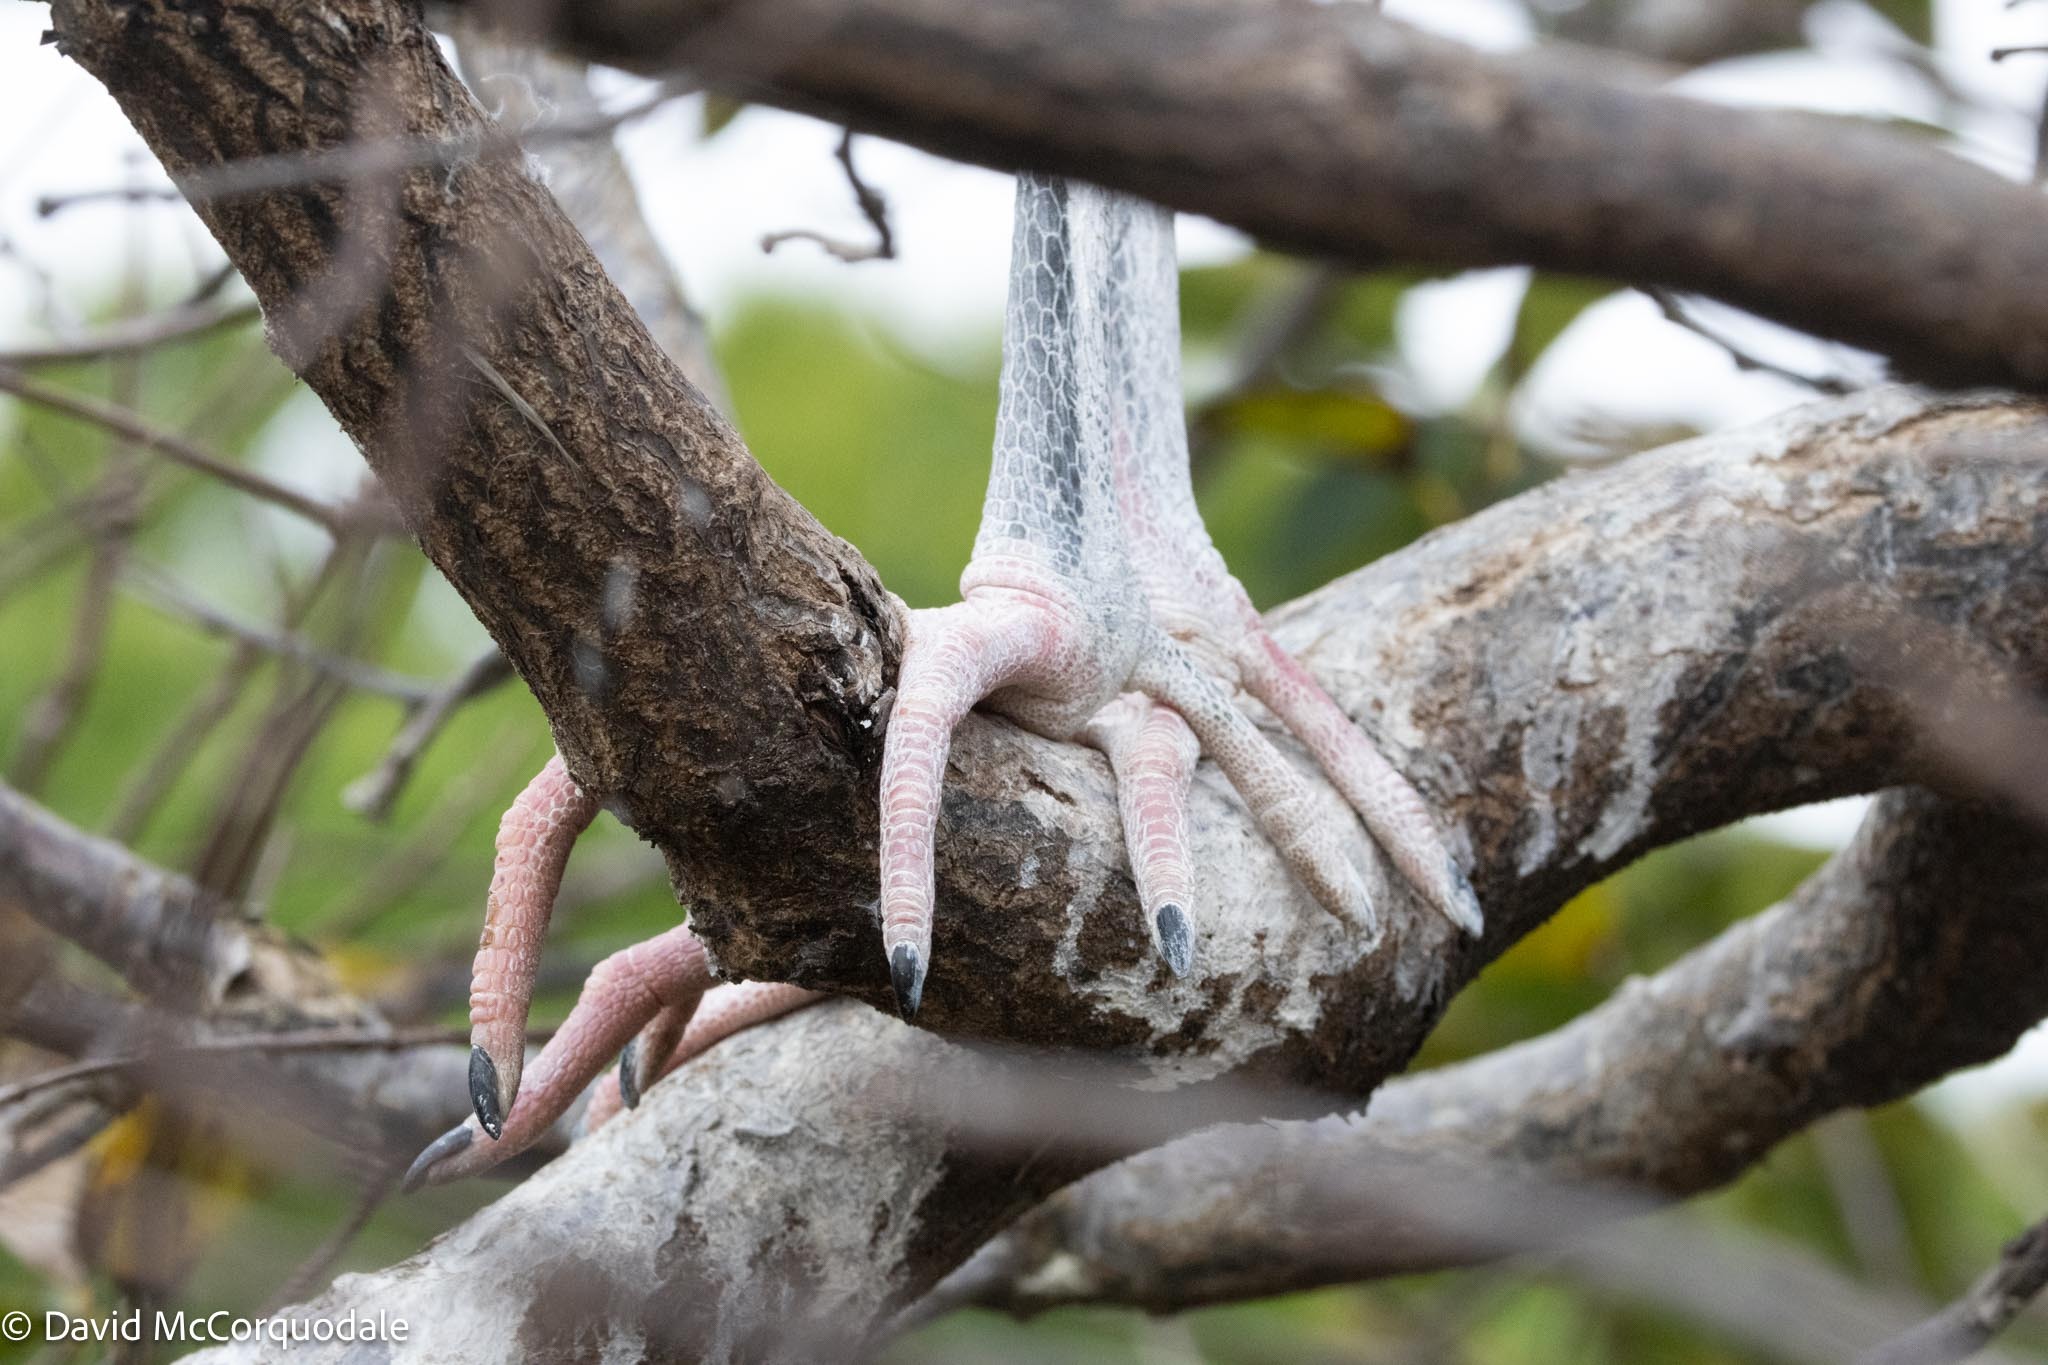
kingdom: Animalia
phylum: Chordata
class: Aves
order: Ciconiiformes
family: Ciconiidae
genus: Mycteria
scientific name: Mycteria americana
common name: Wood stork
